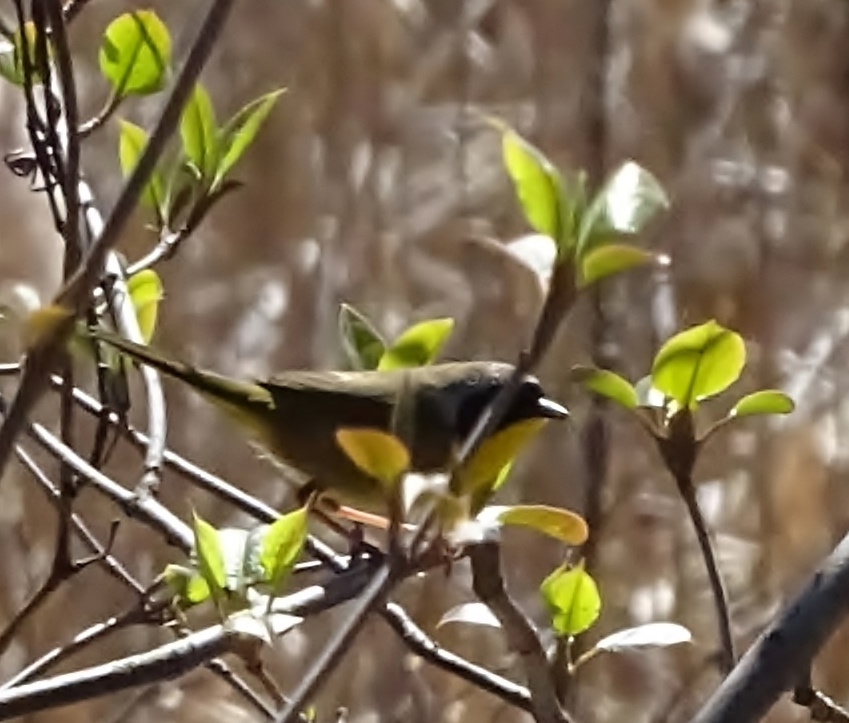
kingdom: Animalia
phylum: Chordata
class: Aves
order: Passeriformes
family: Parulidae
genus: Geothlypis
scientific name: Geothlypis trichas
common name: Common yellowthroat
